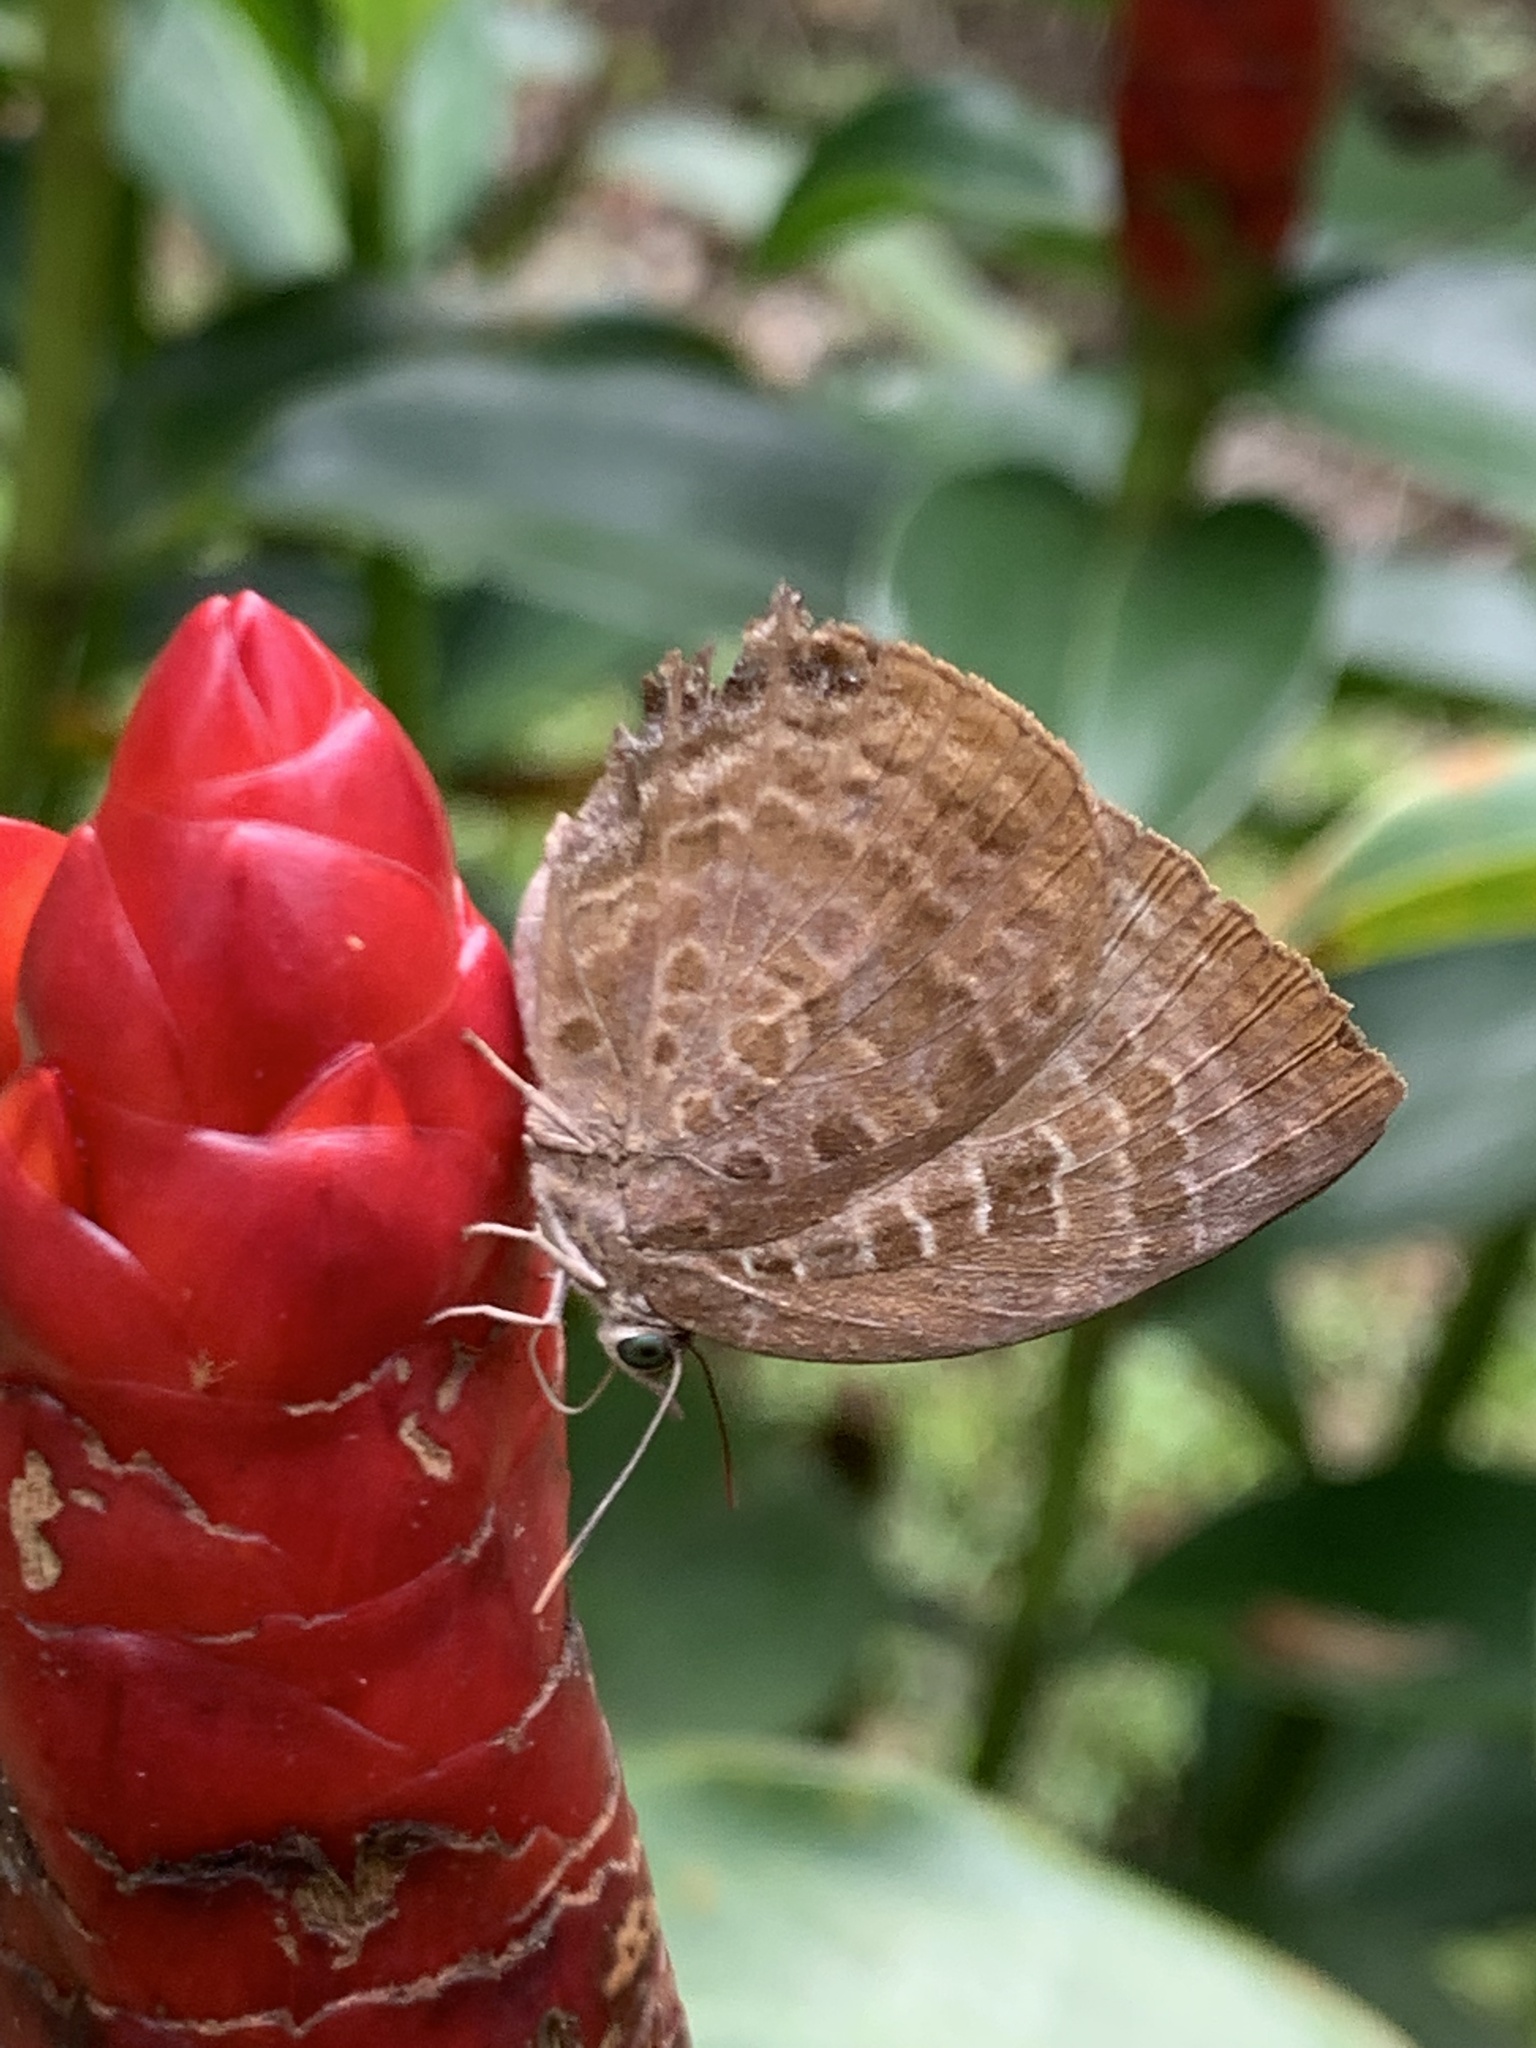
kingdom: Animalia
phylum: Arthropoda
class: Insecta
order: Lepidoptera
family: Lycaenidae
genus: Arhopala
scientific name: Arhopala centaurus
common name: Dull oak-blue
